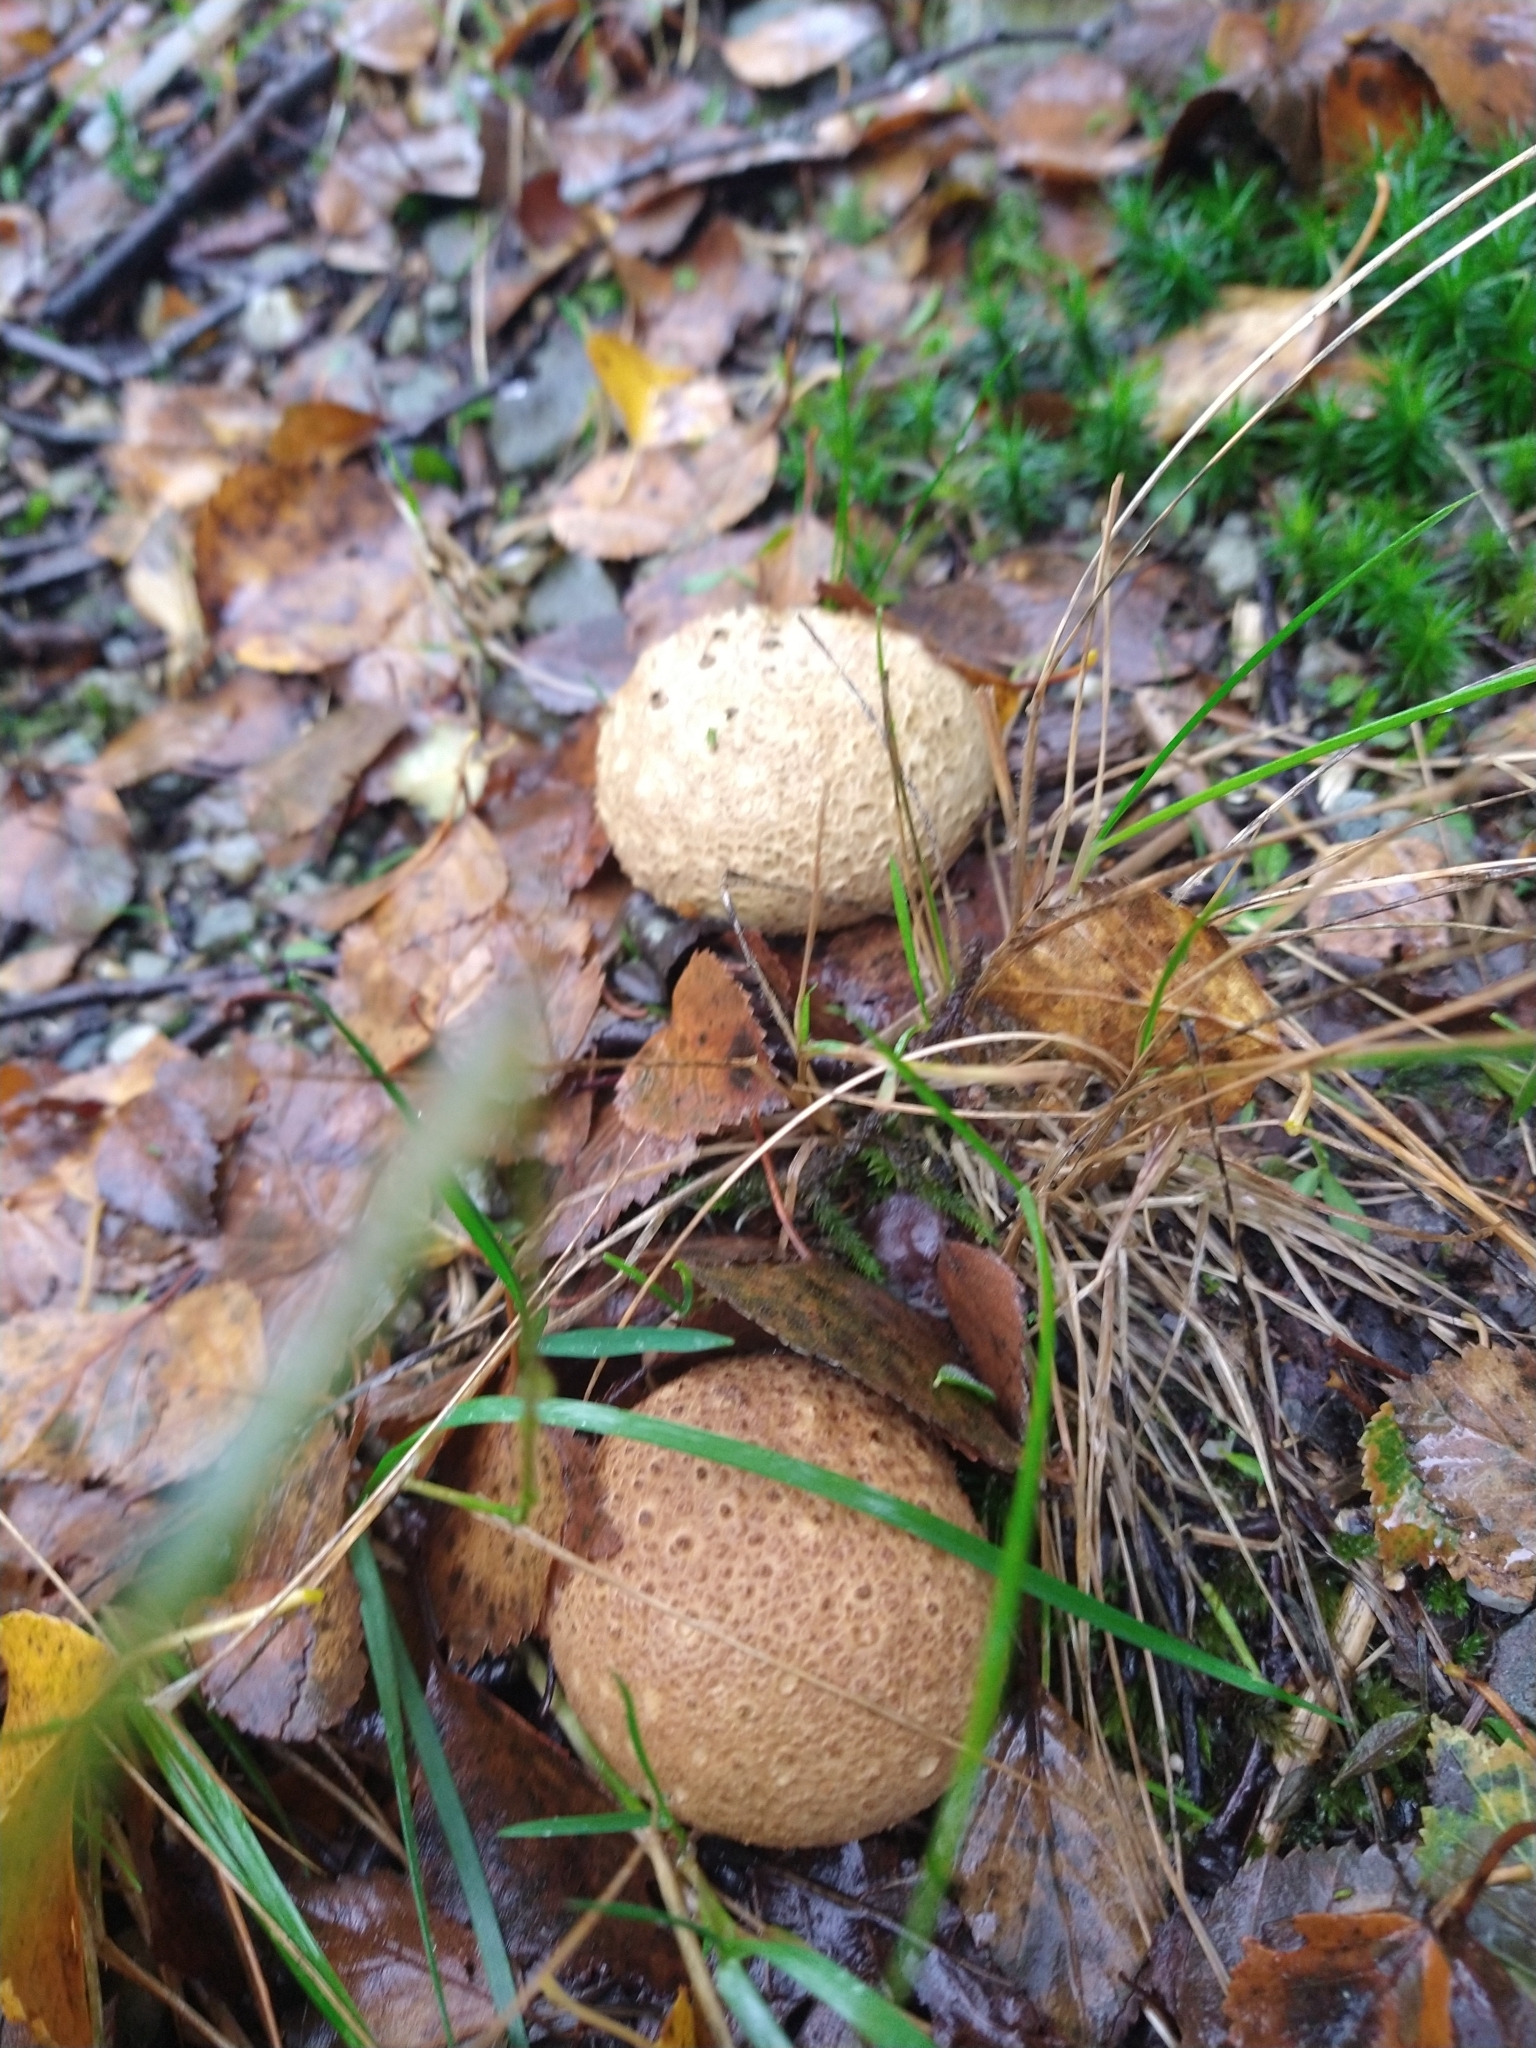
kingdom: Fungi
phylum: Basidiomycota
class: Agaricomycetes
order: Boletales
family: Sclerodermataceae
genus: Scleroderma
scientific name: Scleroderma citrinum
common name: Common earthball
